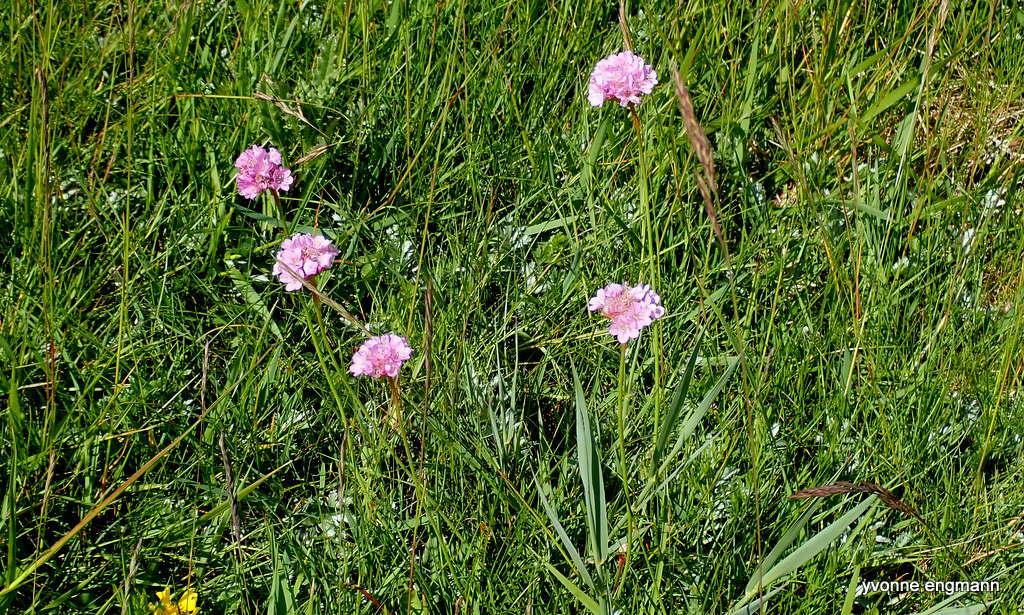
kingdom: Plantae
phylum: Tracheophyta
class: Magnoliopsida
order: Caryophyllales
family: Plumbaginaceae
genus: Armeria
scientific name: Armeria maritima
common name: Thrift
